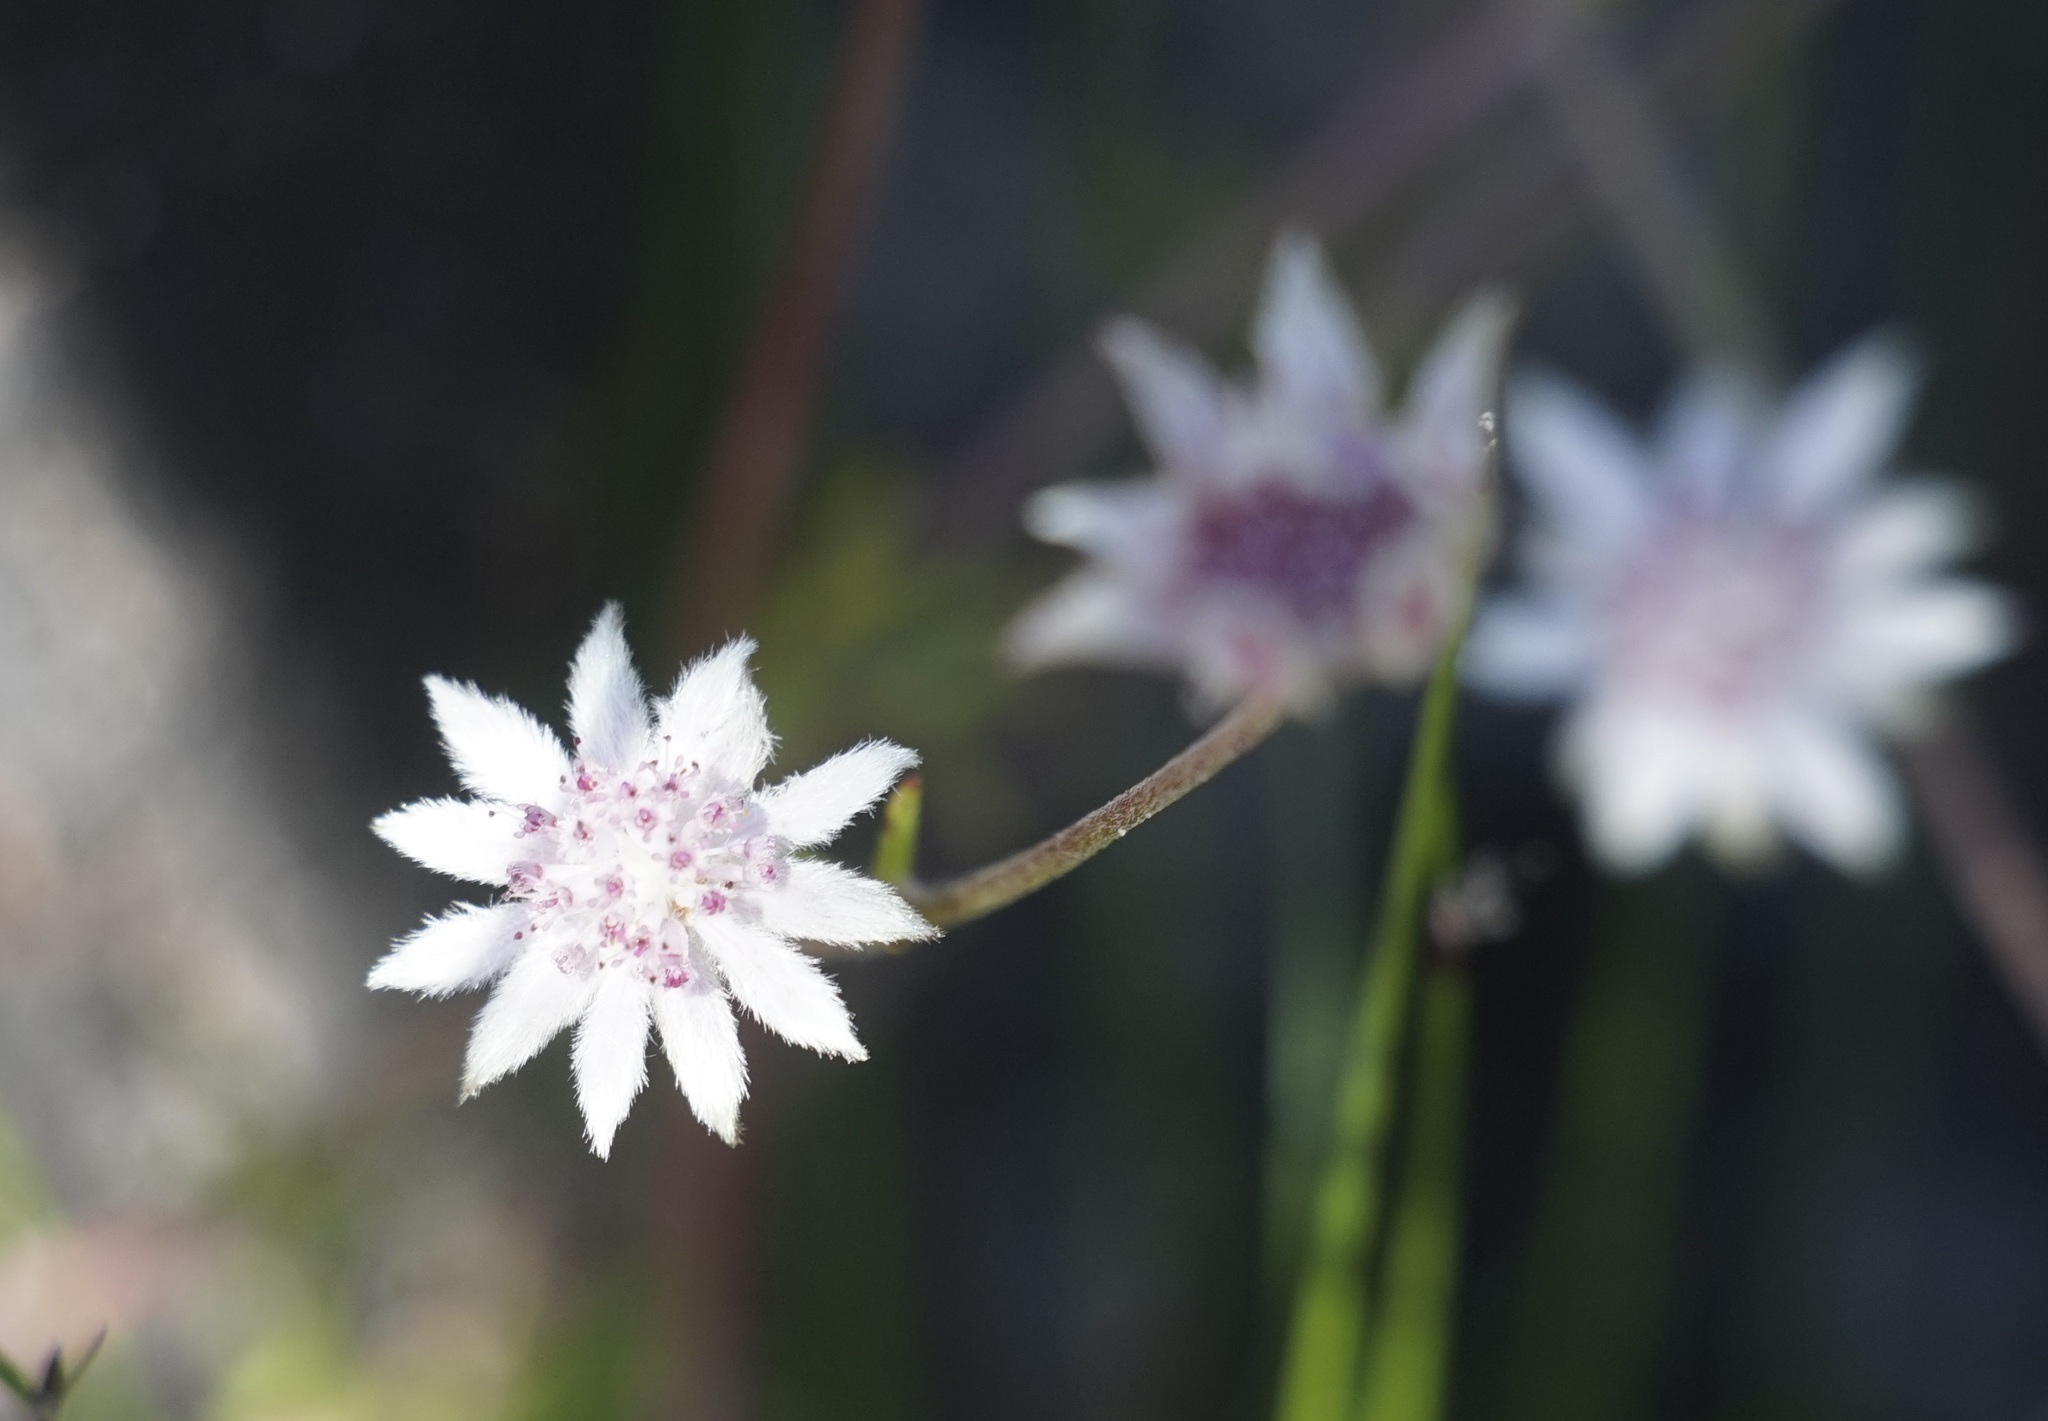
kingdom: Plantae
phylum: Tracheophyta
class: Magnoliopsida
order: Apiales
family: Apiaceae
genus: Actinotus
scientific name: Actinotus forsythii
